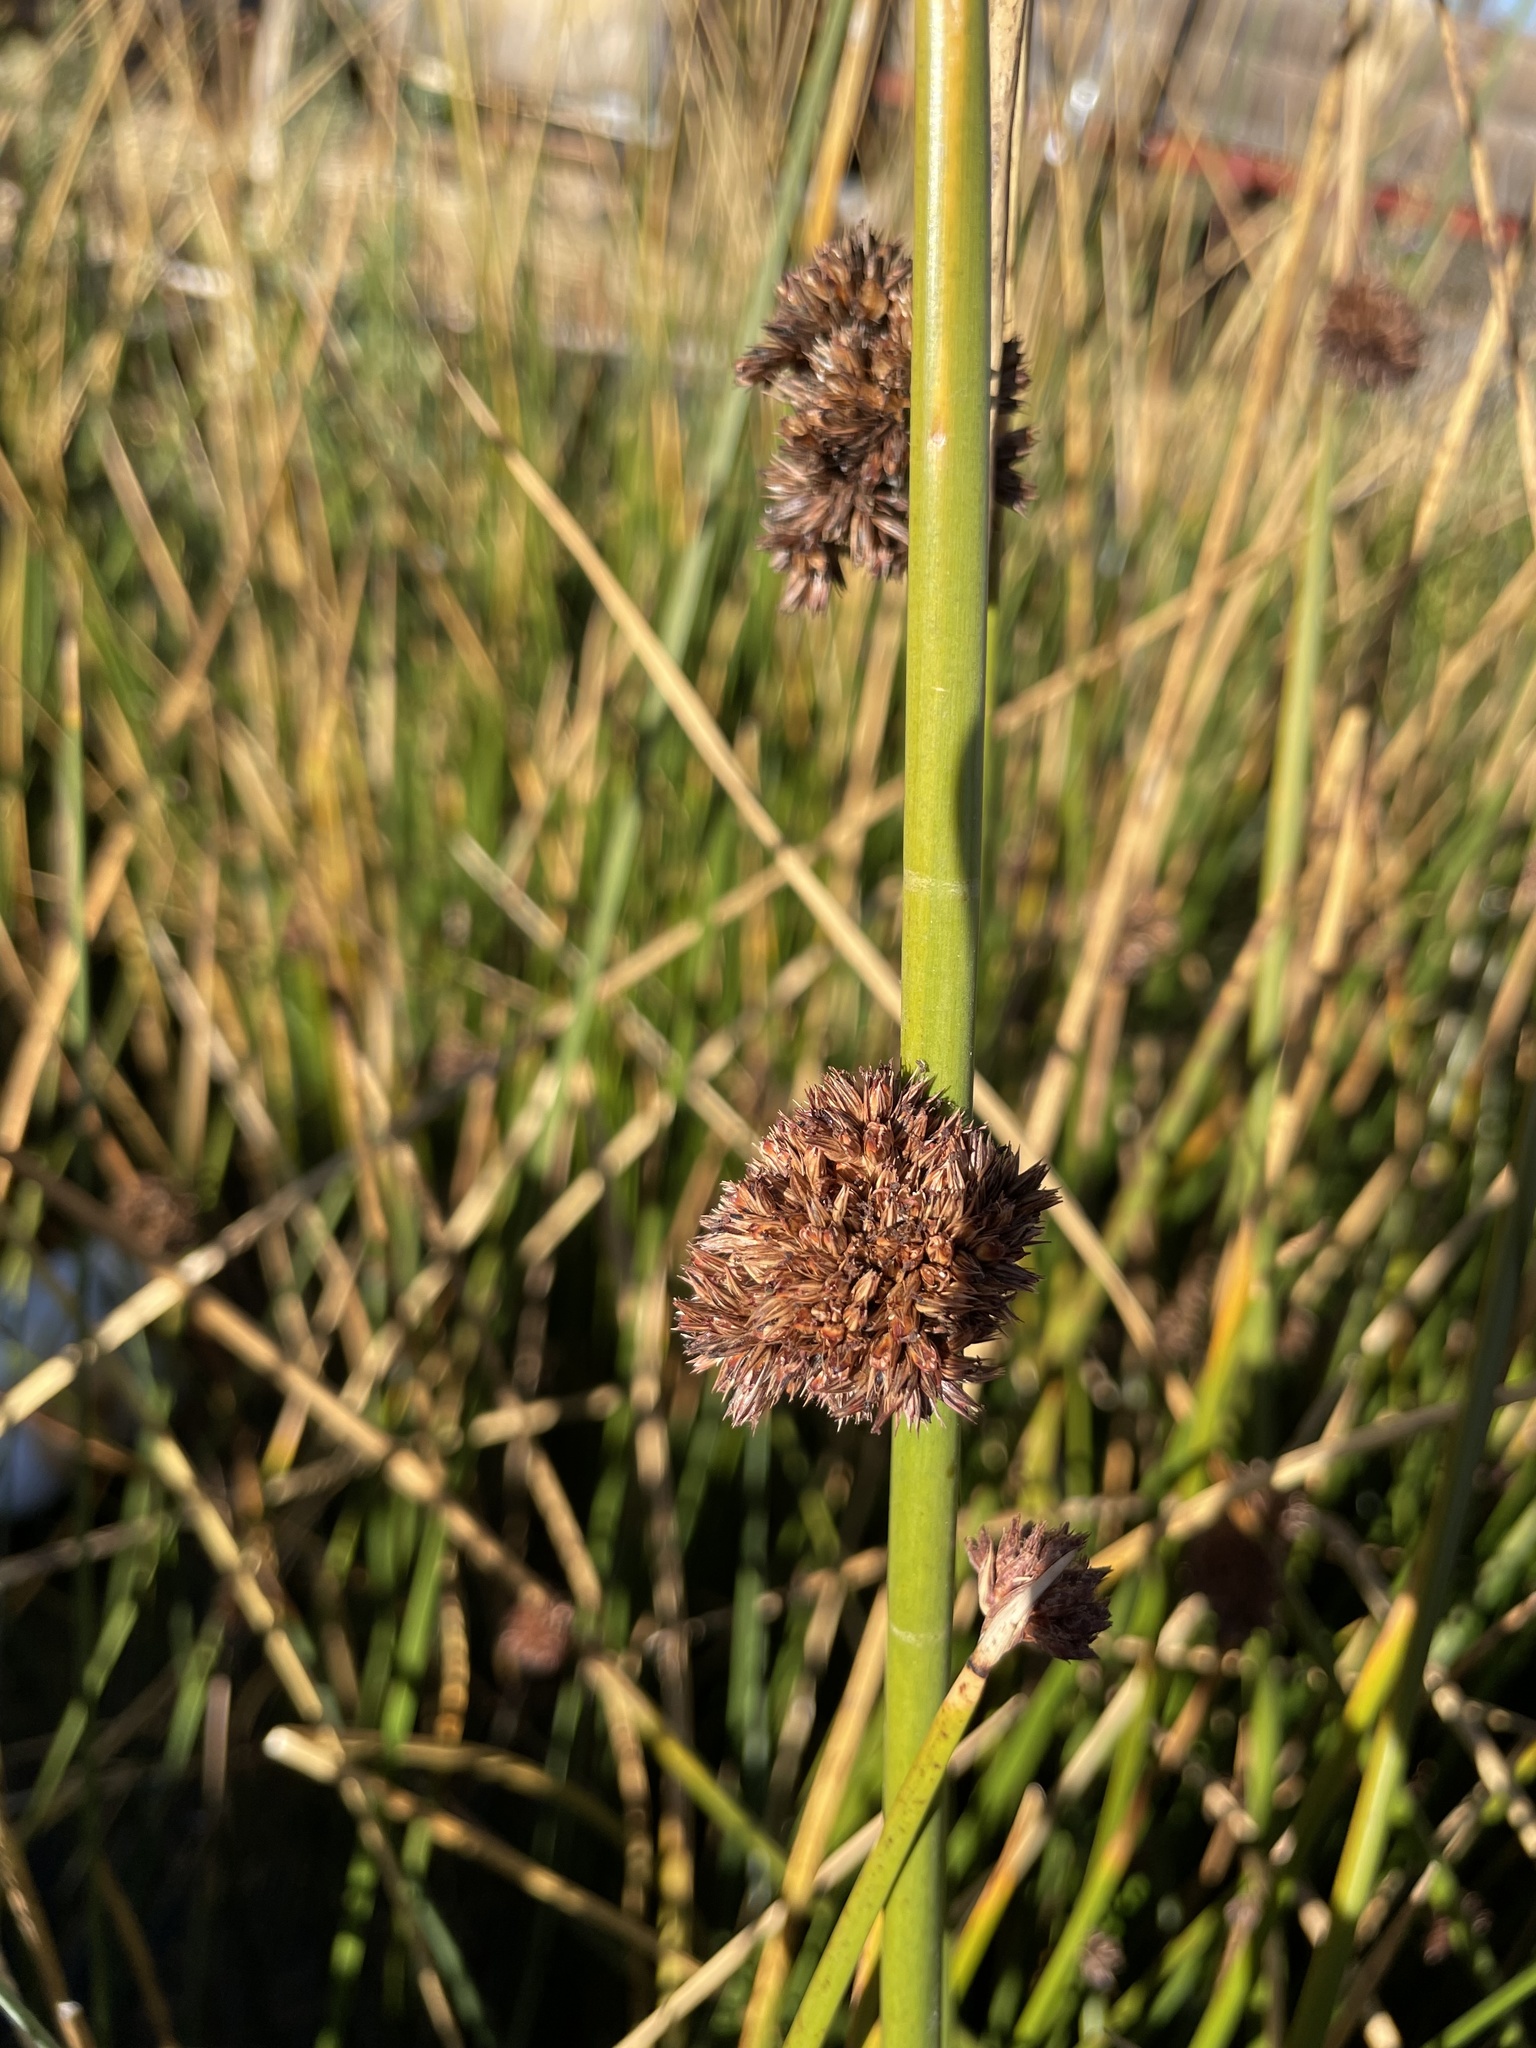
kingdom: Plantae
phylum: Tracheophyta
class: Liliopsida
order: Poales
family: Cyperaceae
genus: Schoenoplectus
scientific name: Schoenoplectus californicus
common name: California bulrush
